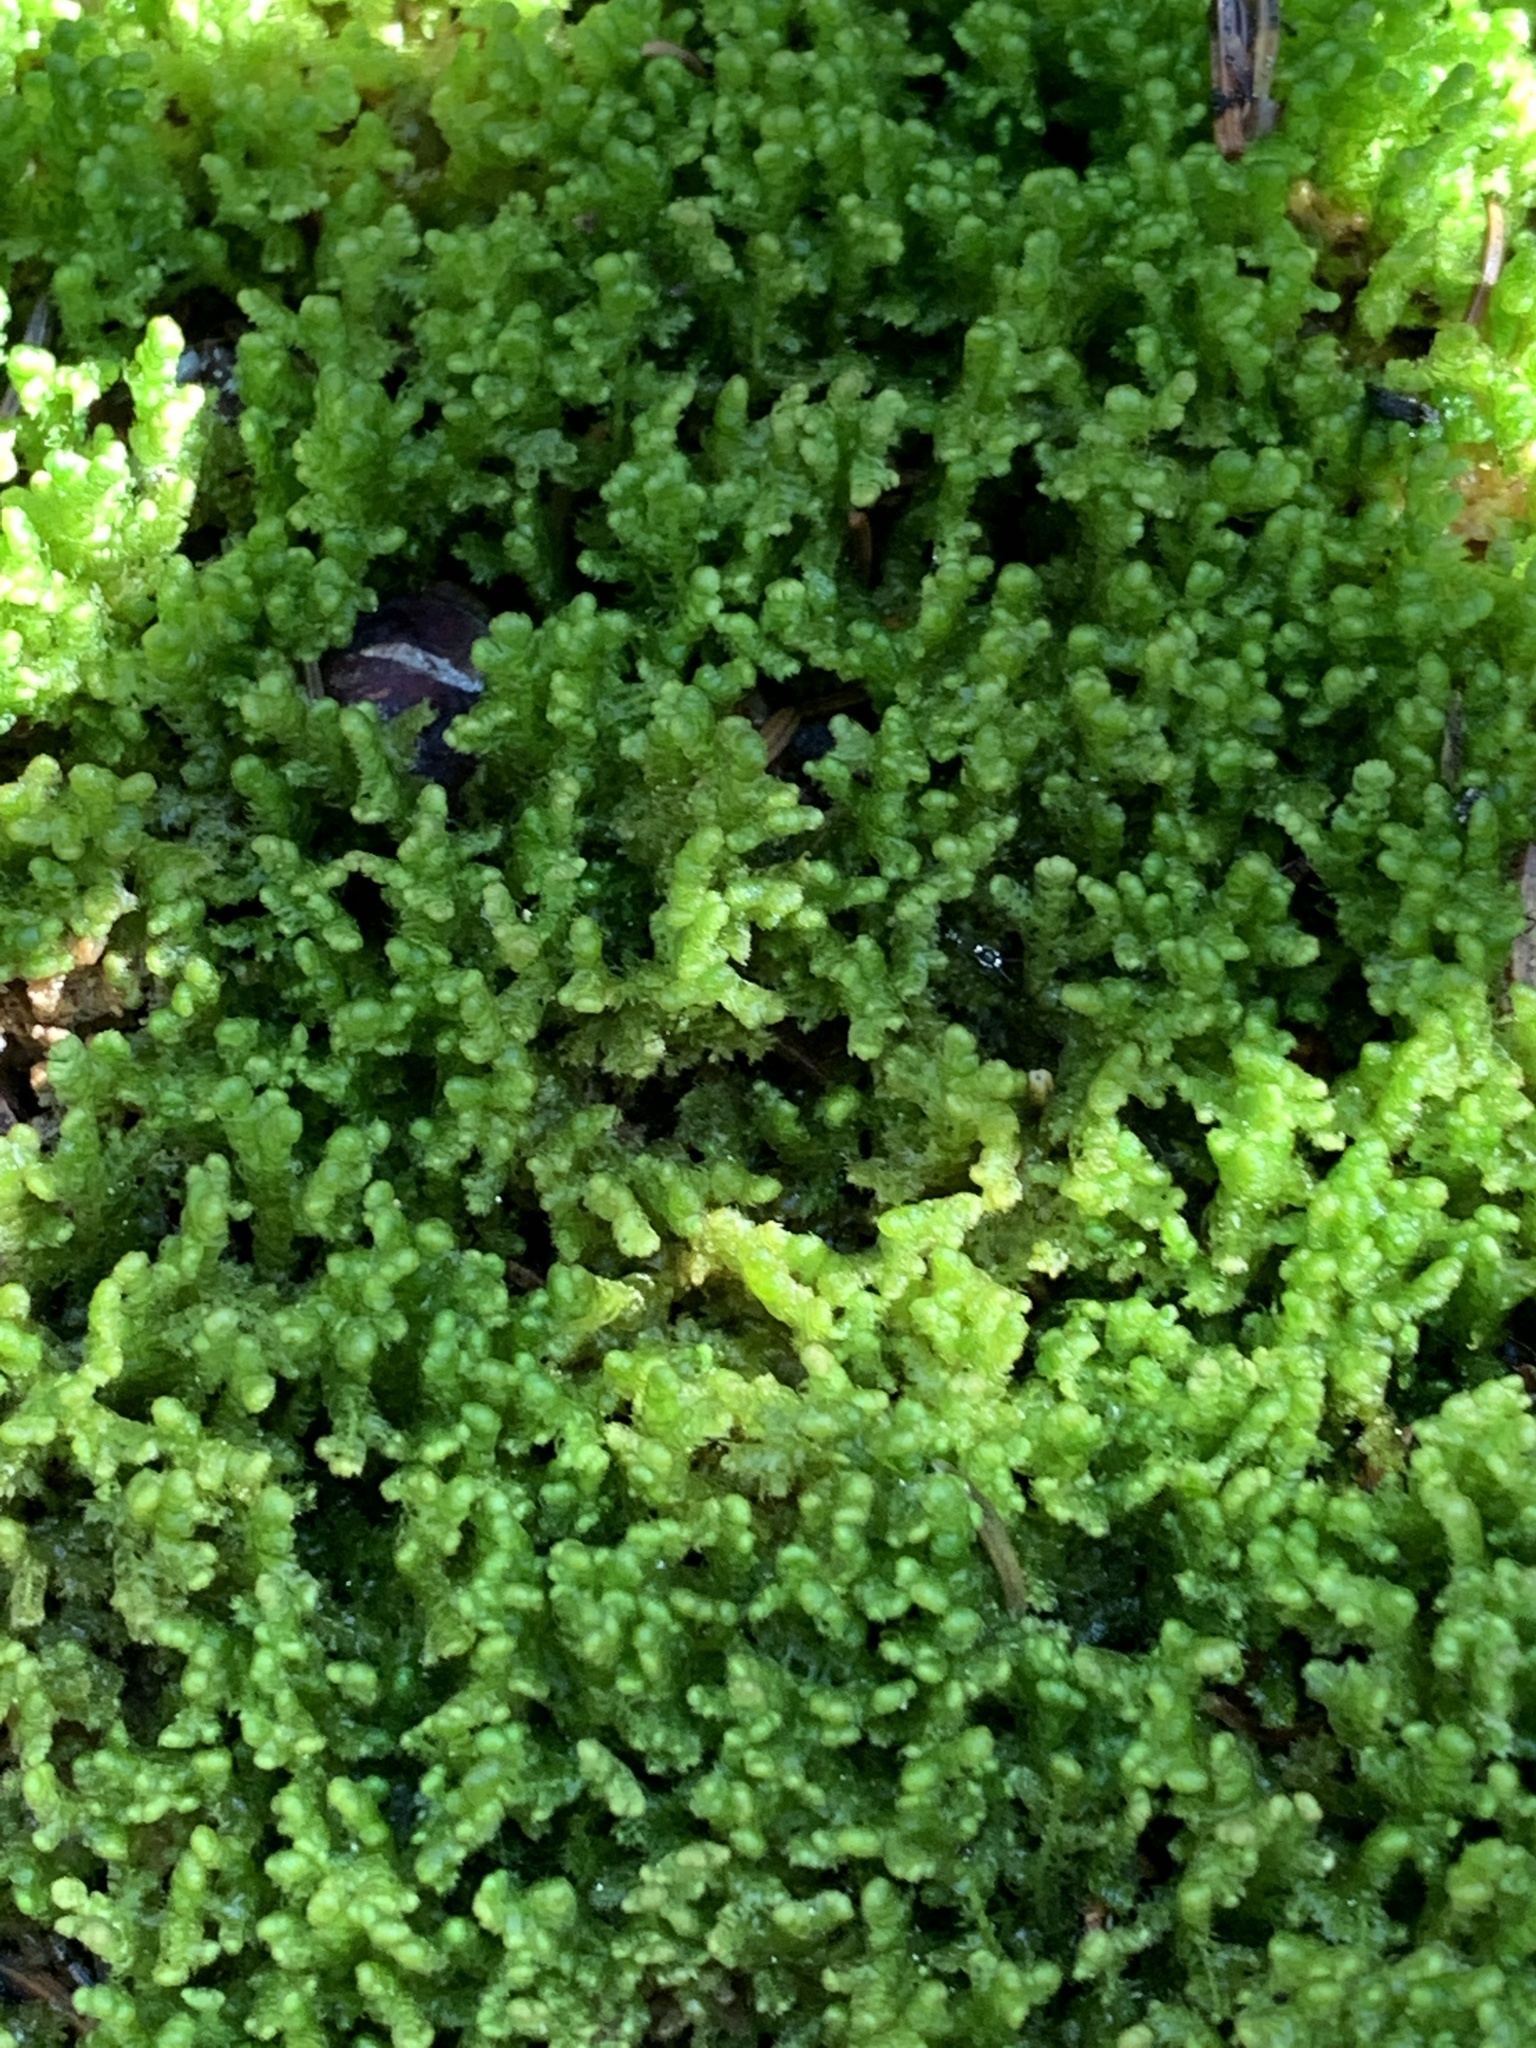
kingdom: Plantae
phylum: Marchantiophyta
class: Jungermanniopsida
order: Ptilidiales
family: Ptilidiaceae
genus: Ptilidium
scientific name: Ptilidium ciliare
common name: Ciliate fringewort
